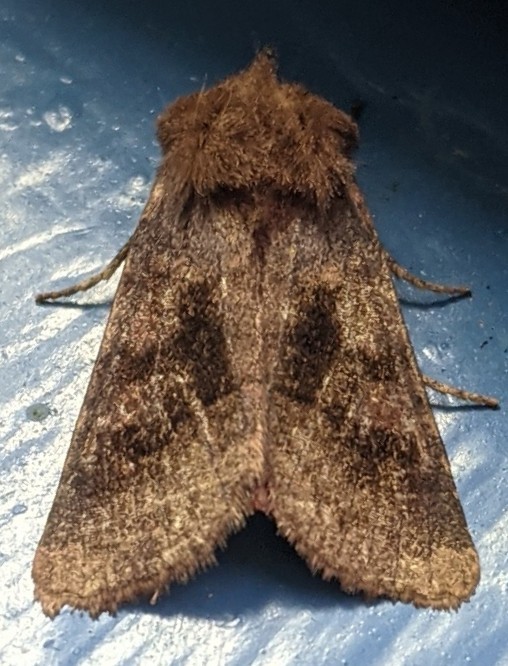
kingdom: Animalia
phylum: Arthropoda
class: Insecta
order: Lepidoptera
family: Noctuidae
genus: Nephelodes
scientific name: Nephelodes minians
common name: Bronzed cutworm
